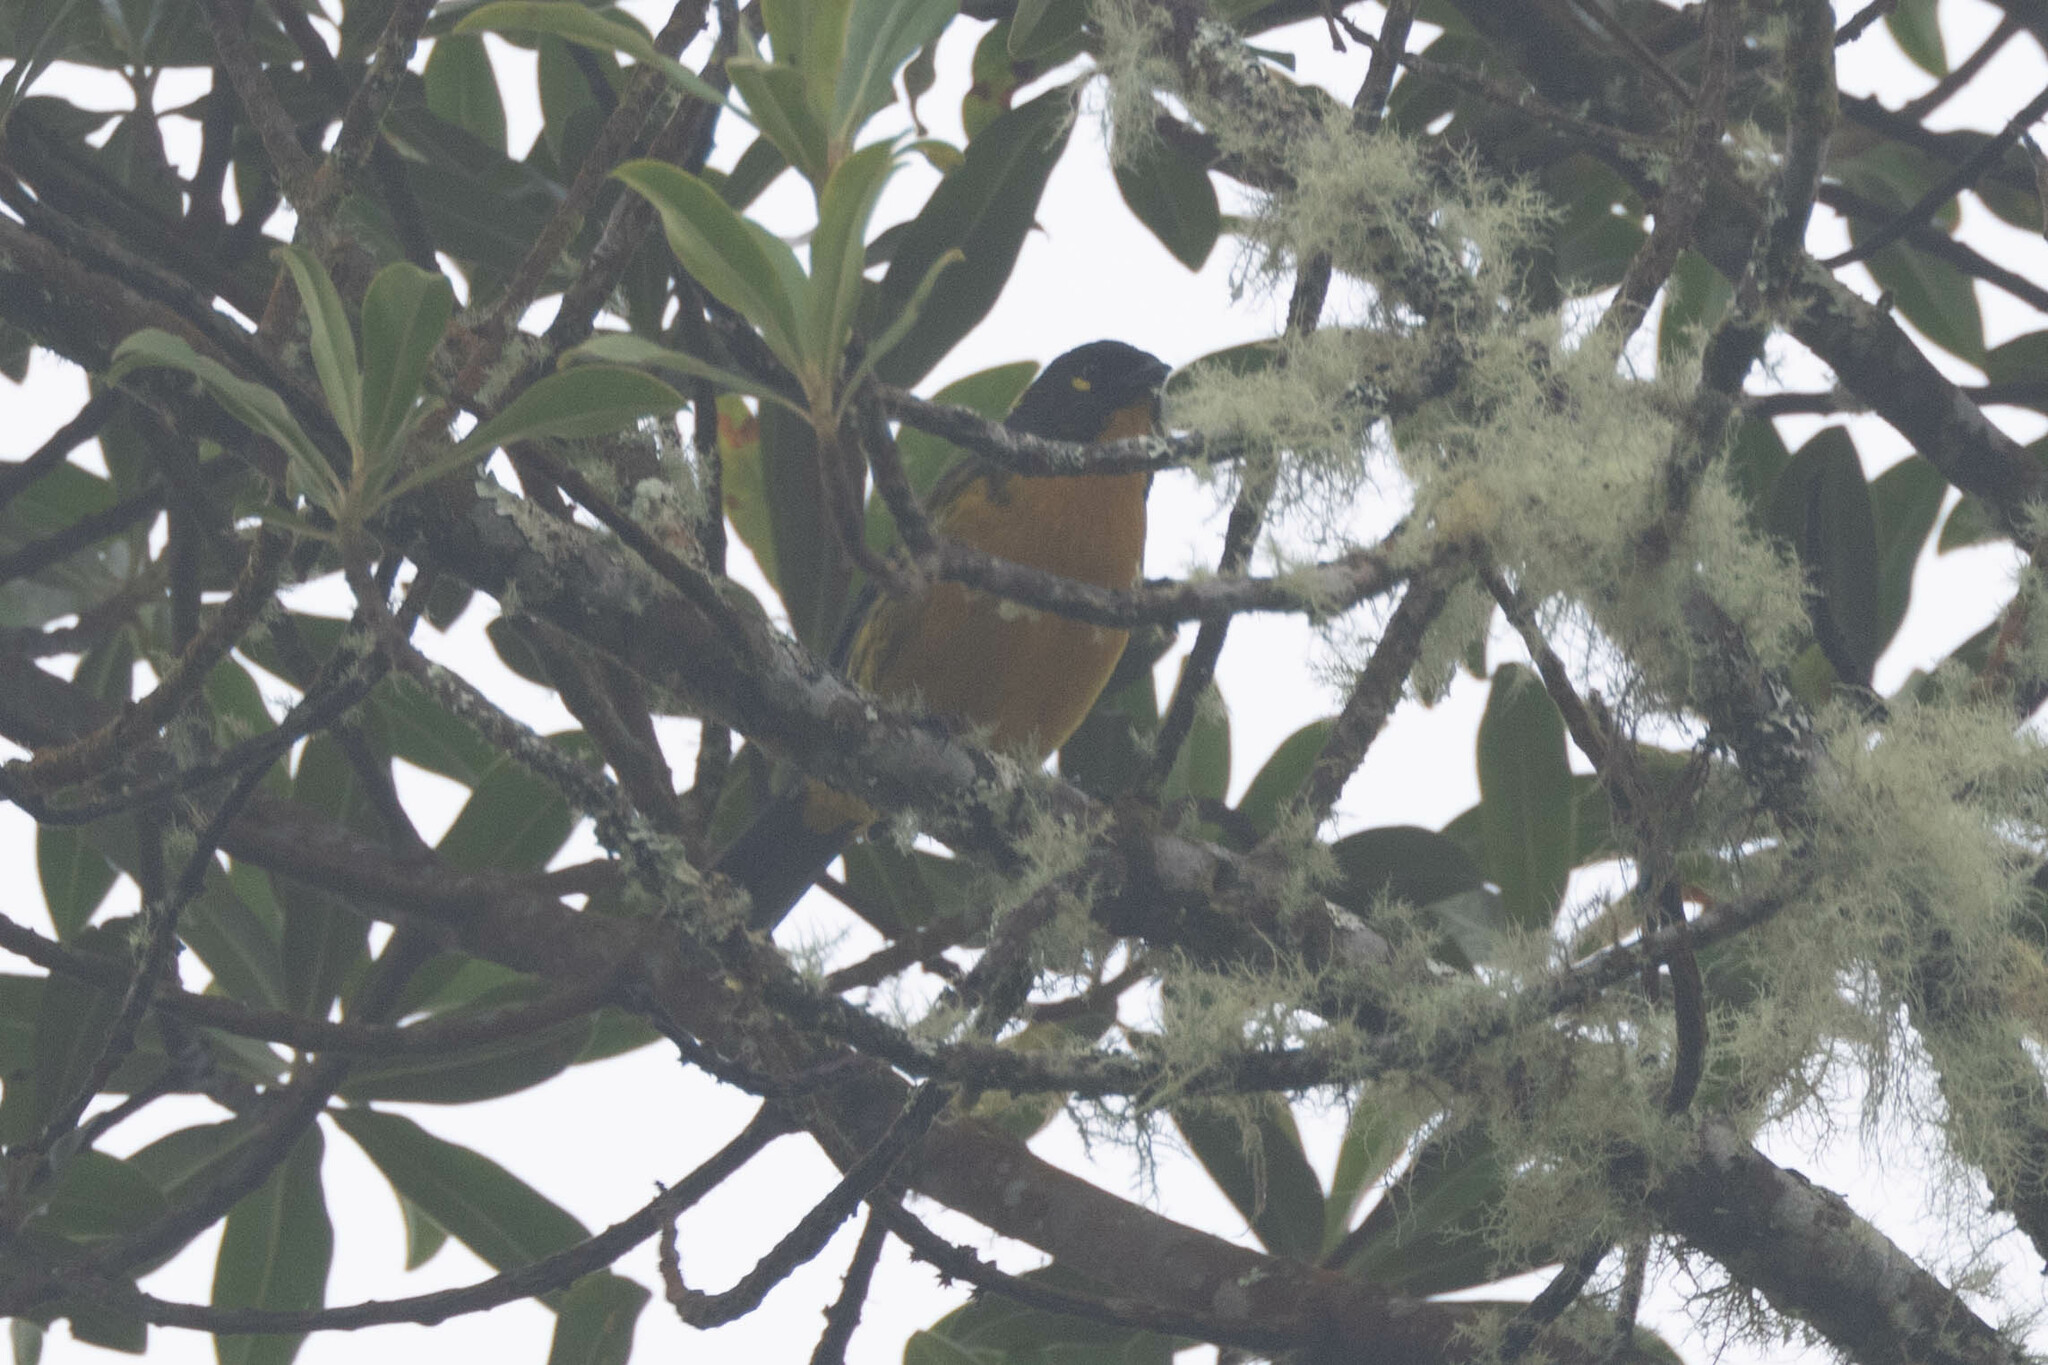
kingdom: Animalia
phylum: Chordata
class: Aves
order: Passeriformes
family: Thraupidae
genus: Anisognathus
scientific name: Anisognathus lacrymosus
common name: Lacrimose mountain-tanager
